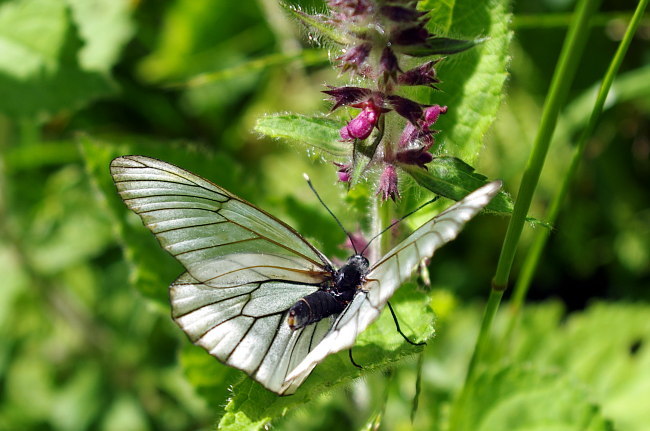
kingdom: Plantae
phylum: Tracheophyta
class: Magnoliopsida
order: Lamiales
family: Lamiaceae
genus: Stachys
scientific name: Stachys sylvatica
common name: Hedge woundwort
